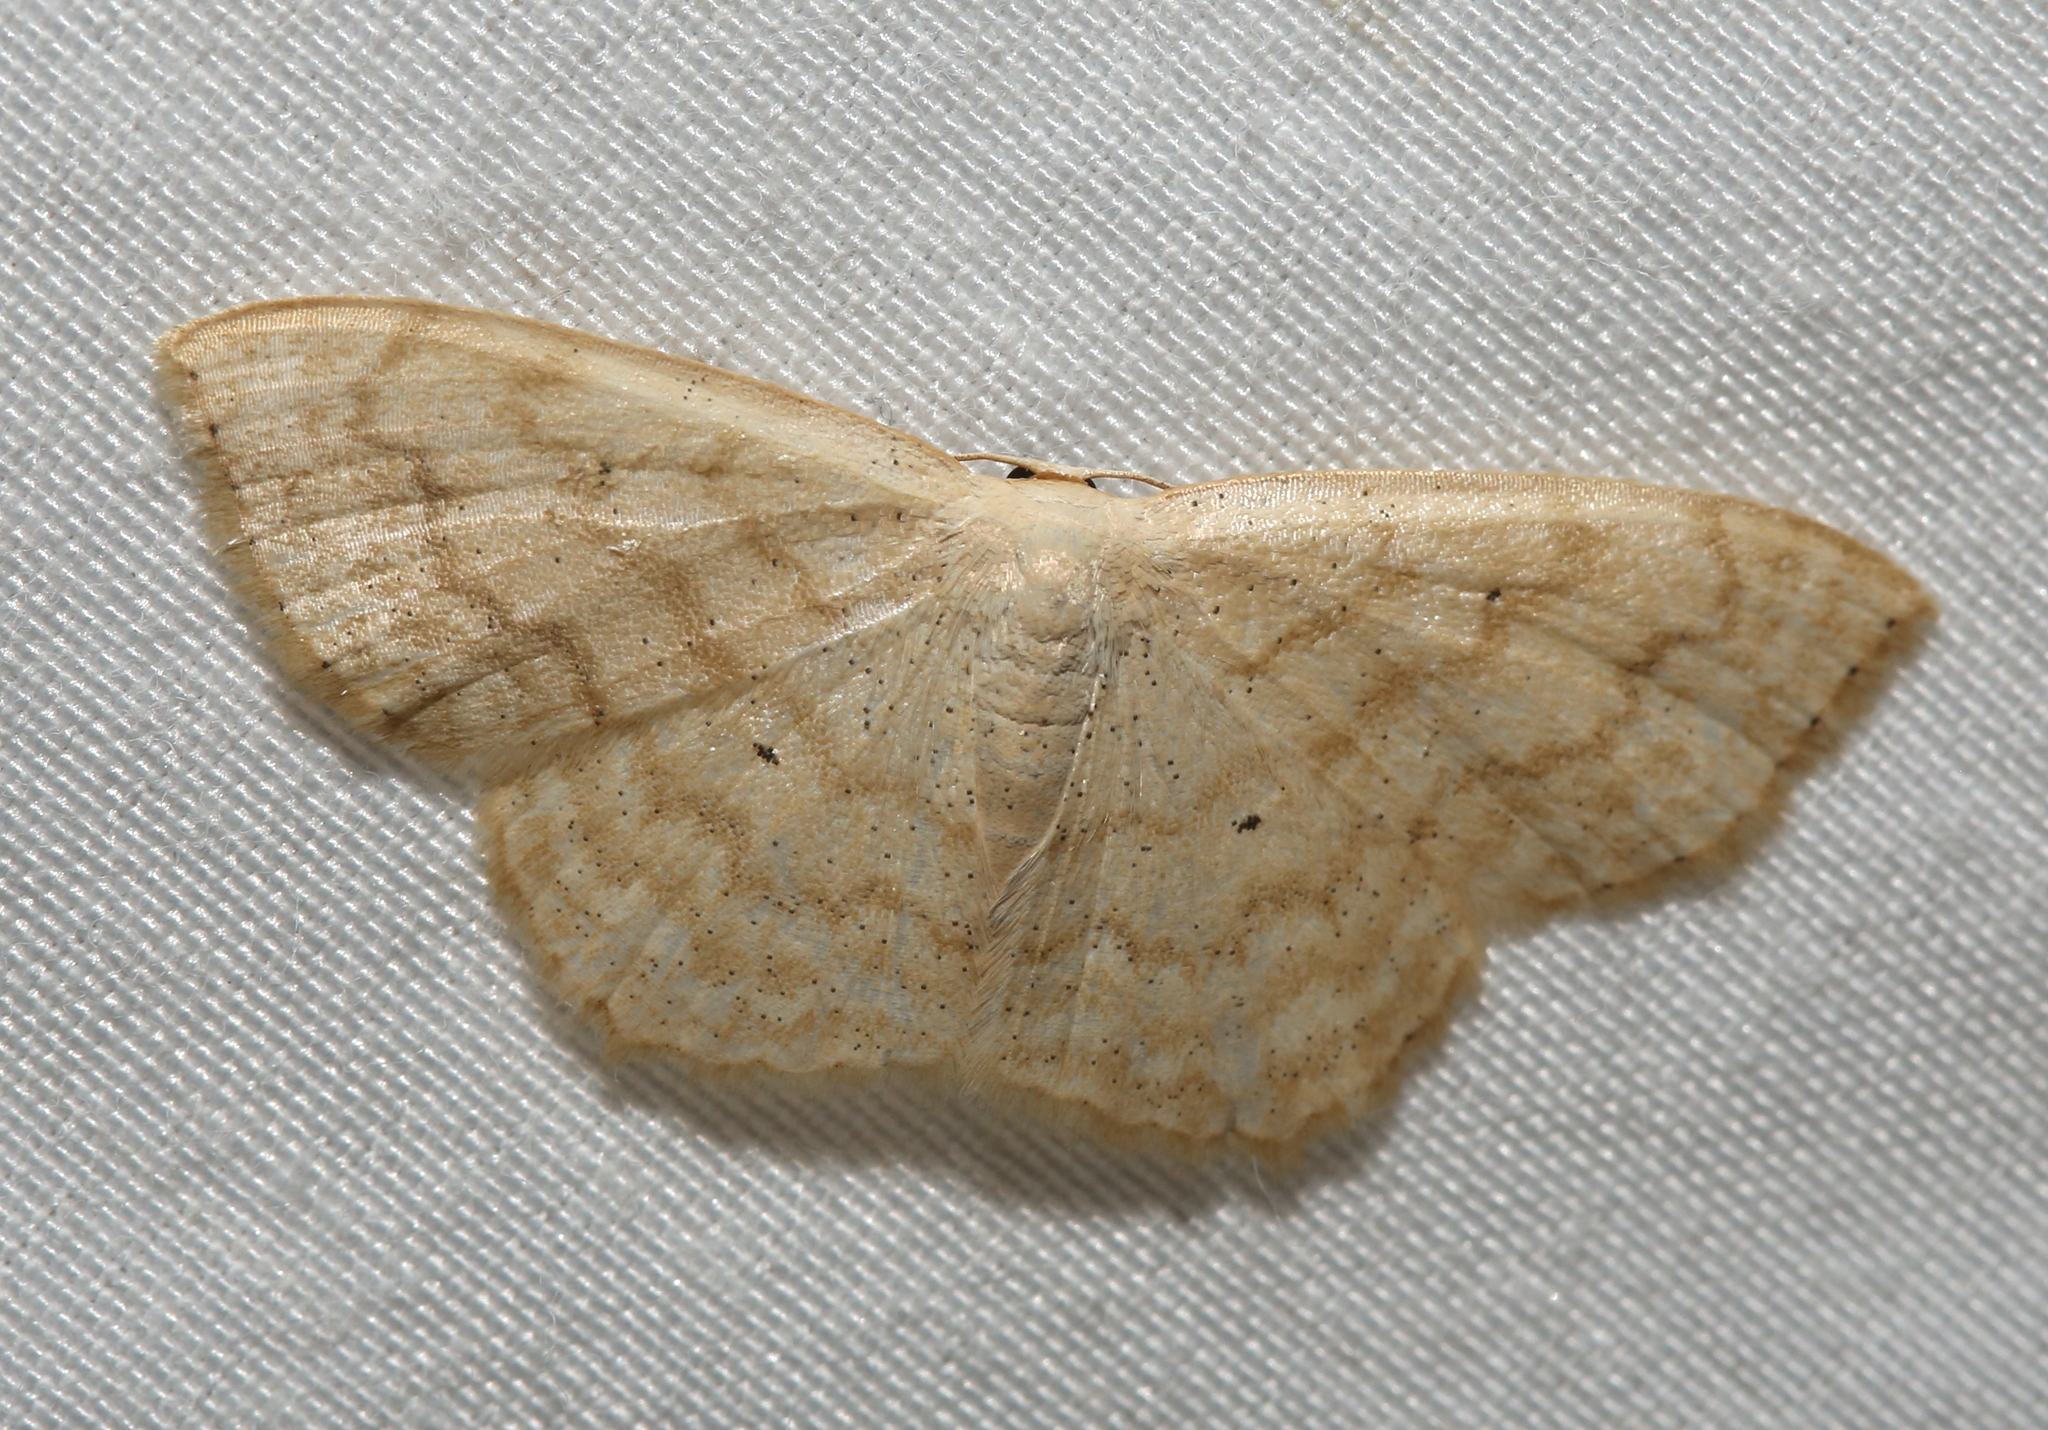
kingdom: Animalia
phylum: Arthropoda
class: Insecta
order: Lepidoptera
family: Geometridae
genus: Scopula
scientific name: Scopula limboundata
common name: Large lace border
